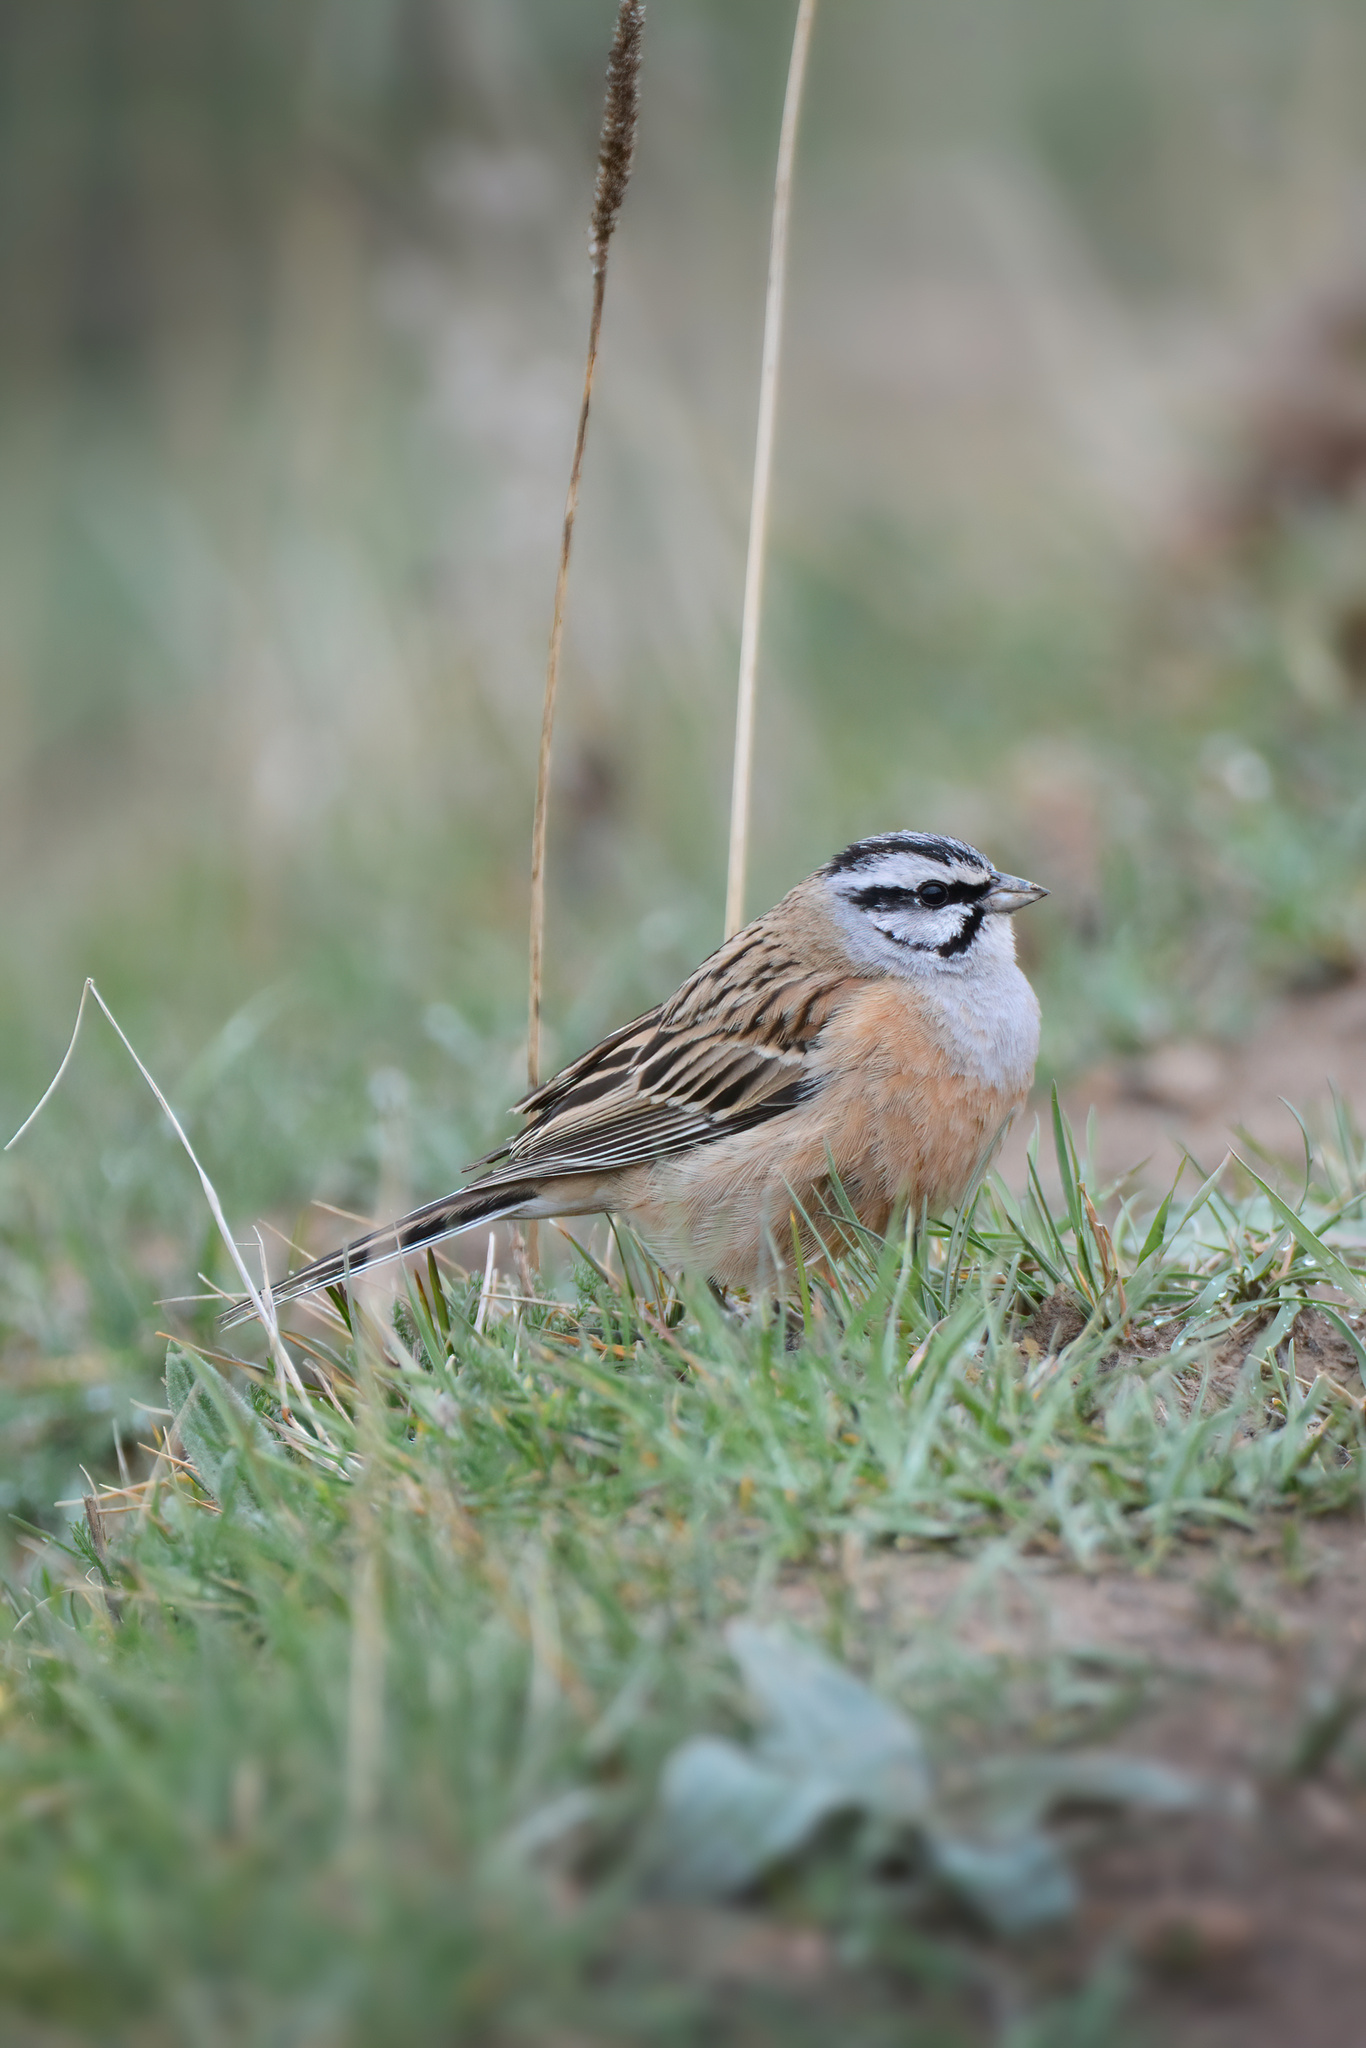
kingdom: Animalia
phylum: Chordata
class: Aves
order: Passeriformes
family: Emberizidae
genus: Emberiza
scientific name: Emberiza cia
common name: Rock bunting
